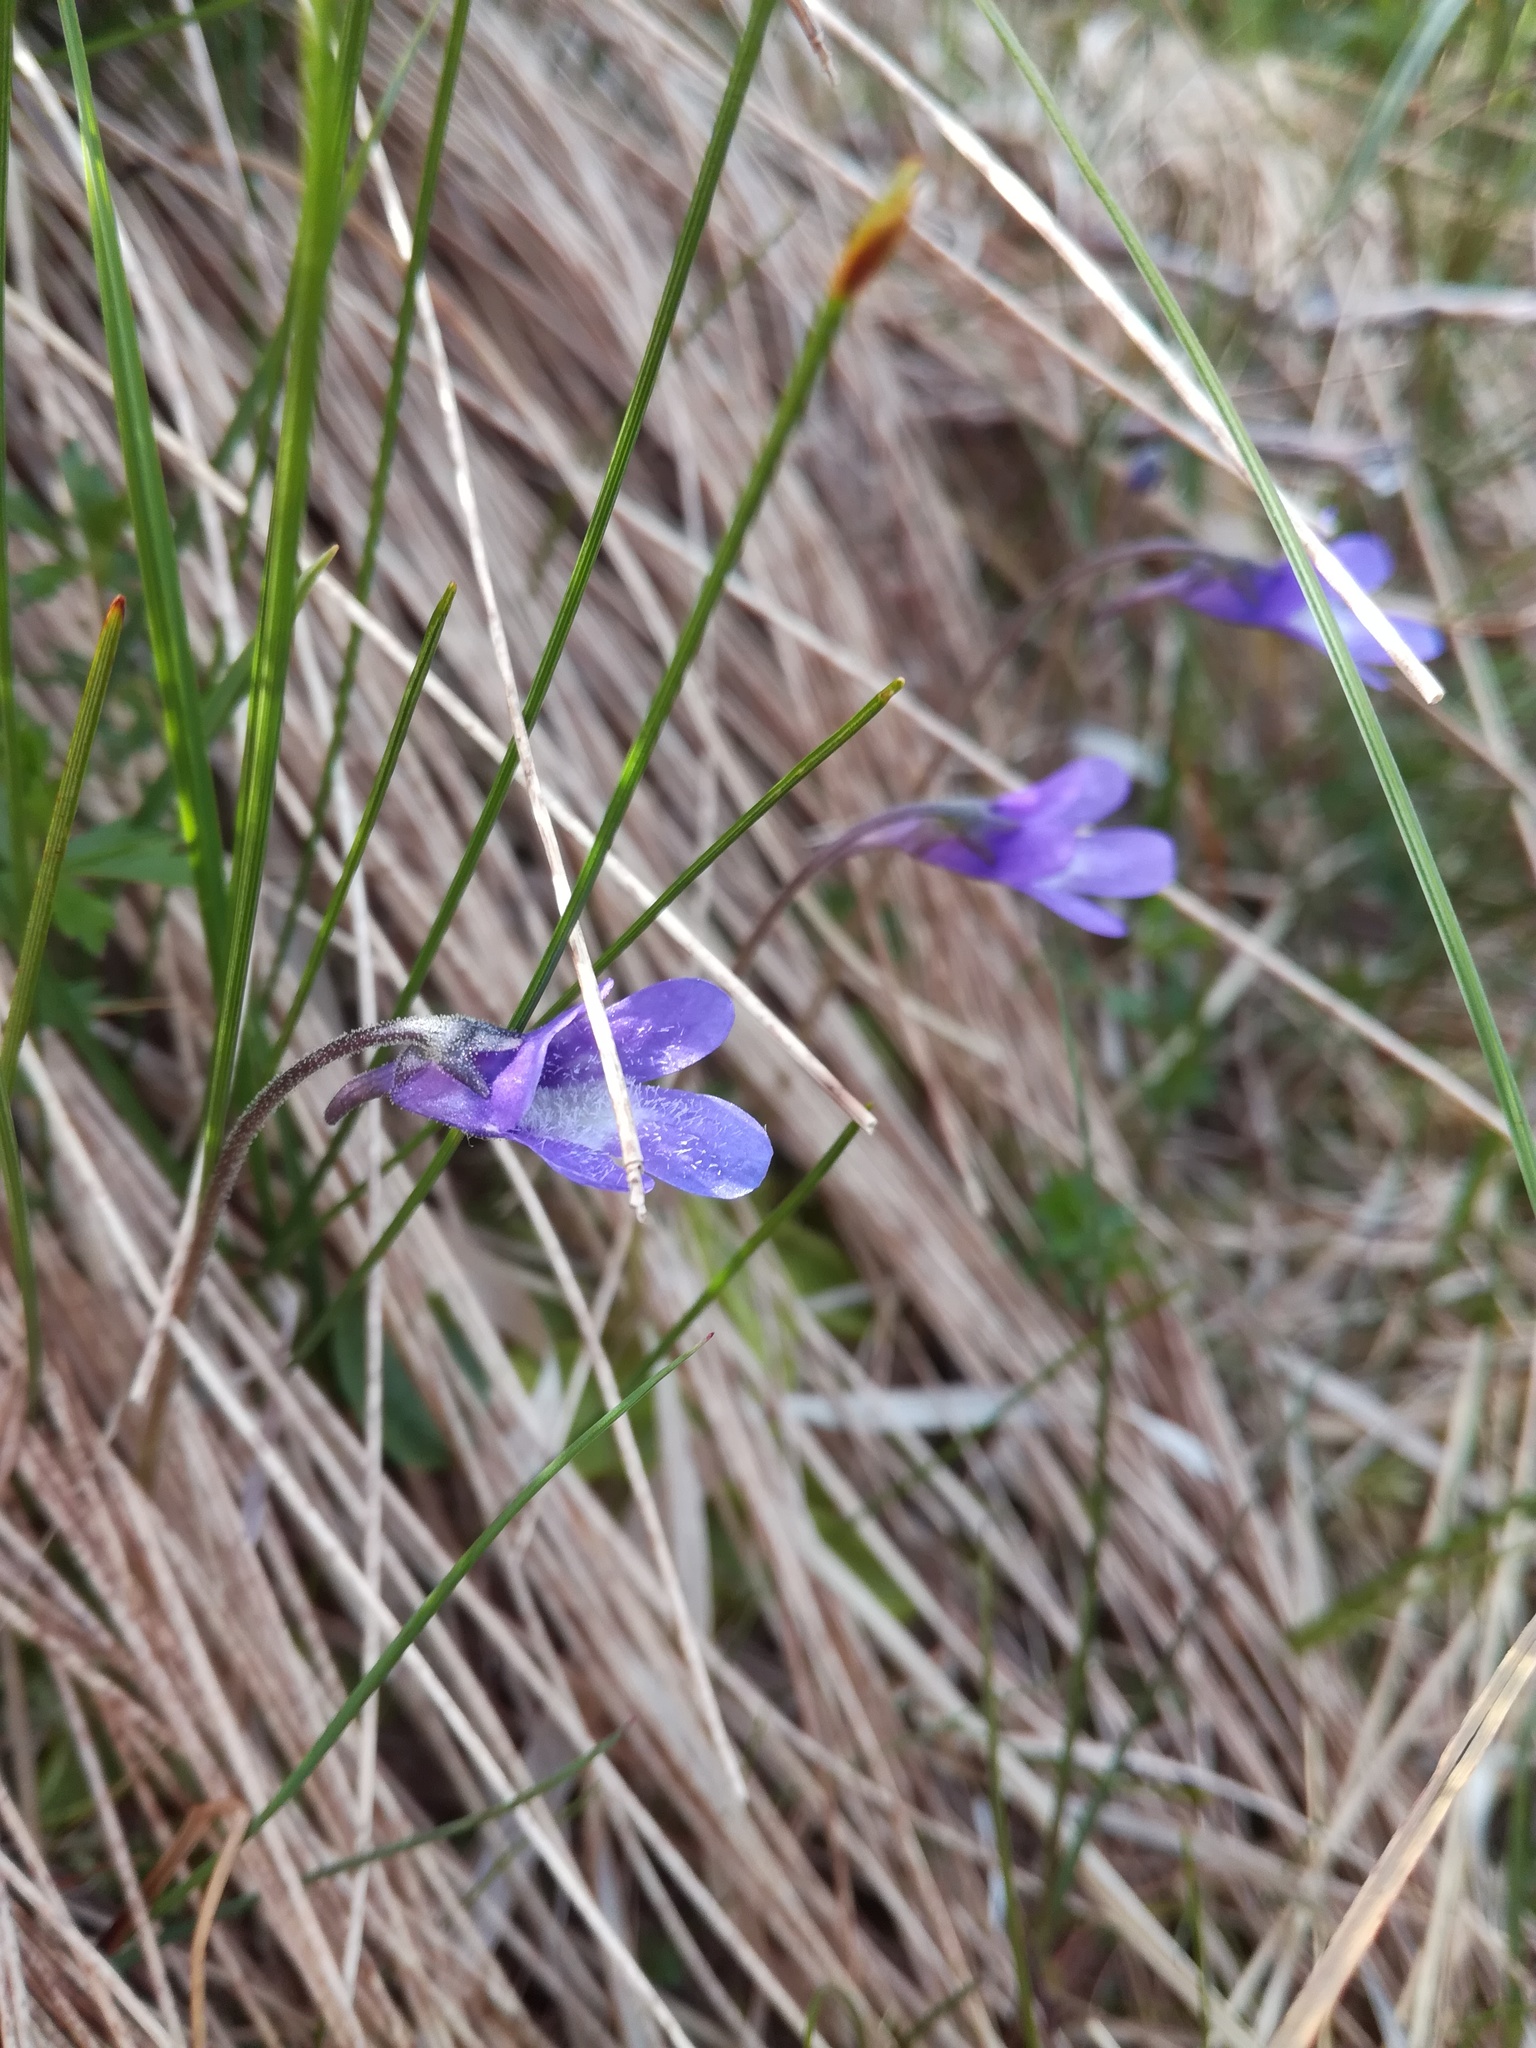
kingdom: Plantae
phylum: Tracheophyta
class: Magnoliopsida
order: Lamiales
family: Lentibulariaceae
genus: Pinguicula
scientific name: Pinguicula vulgaris
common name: Common butterwort
